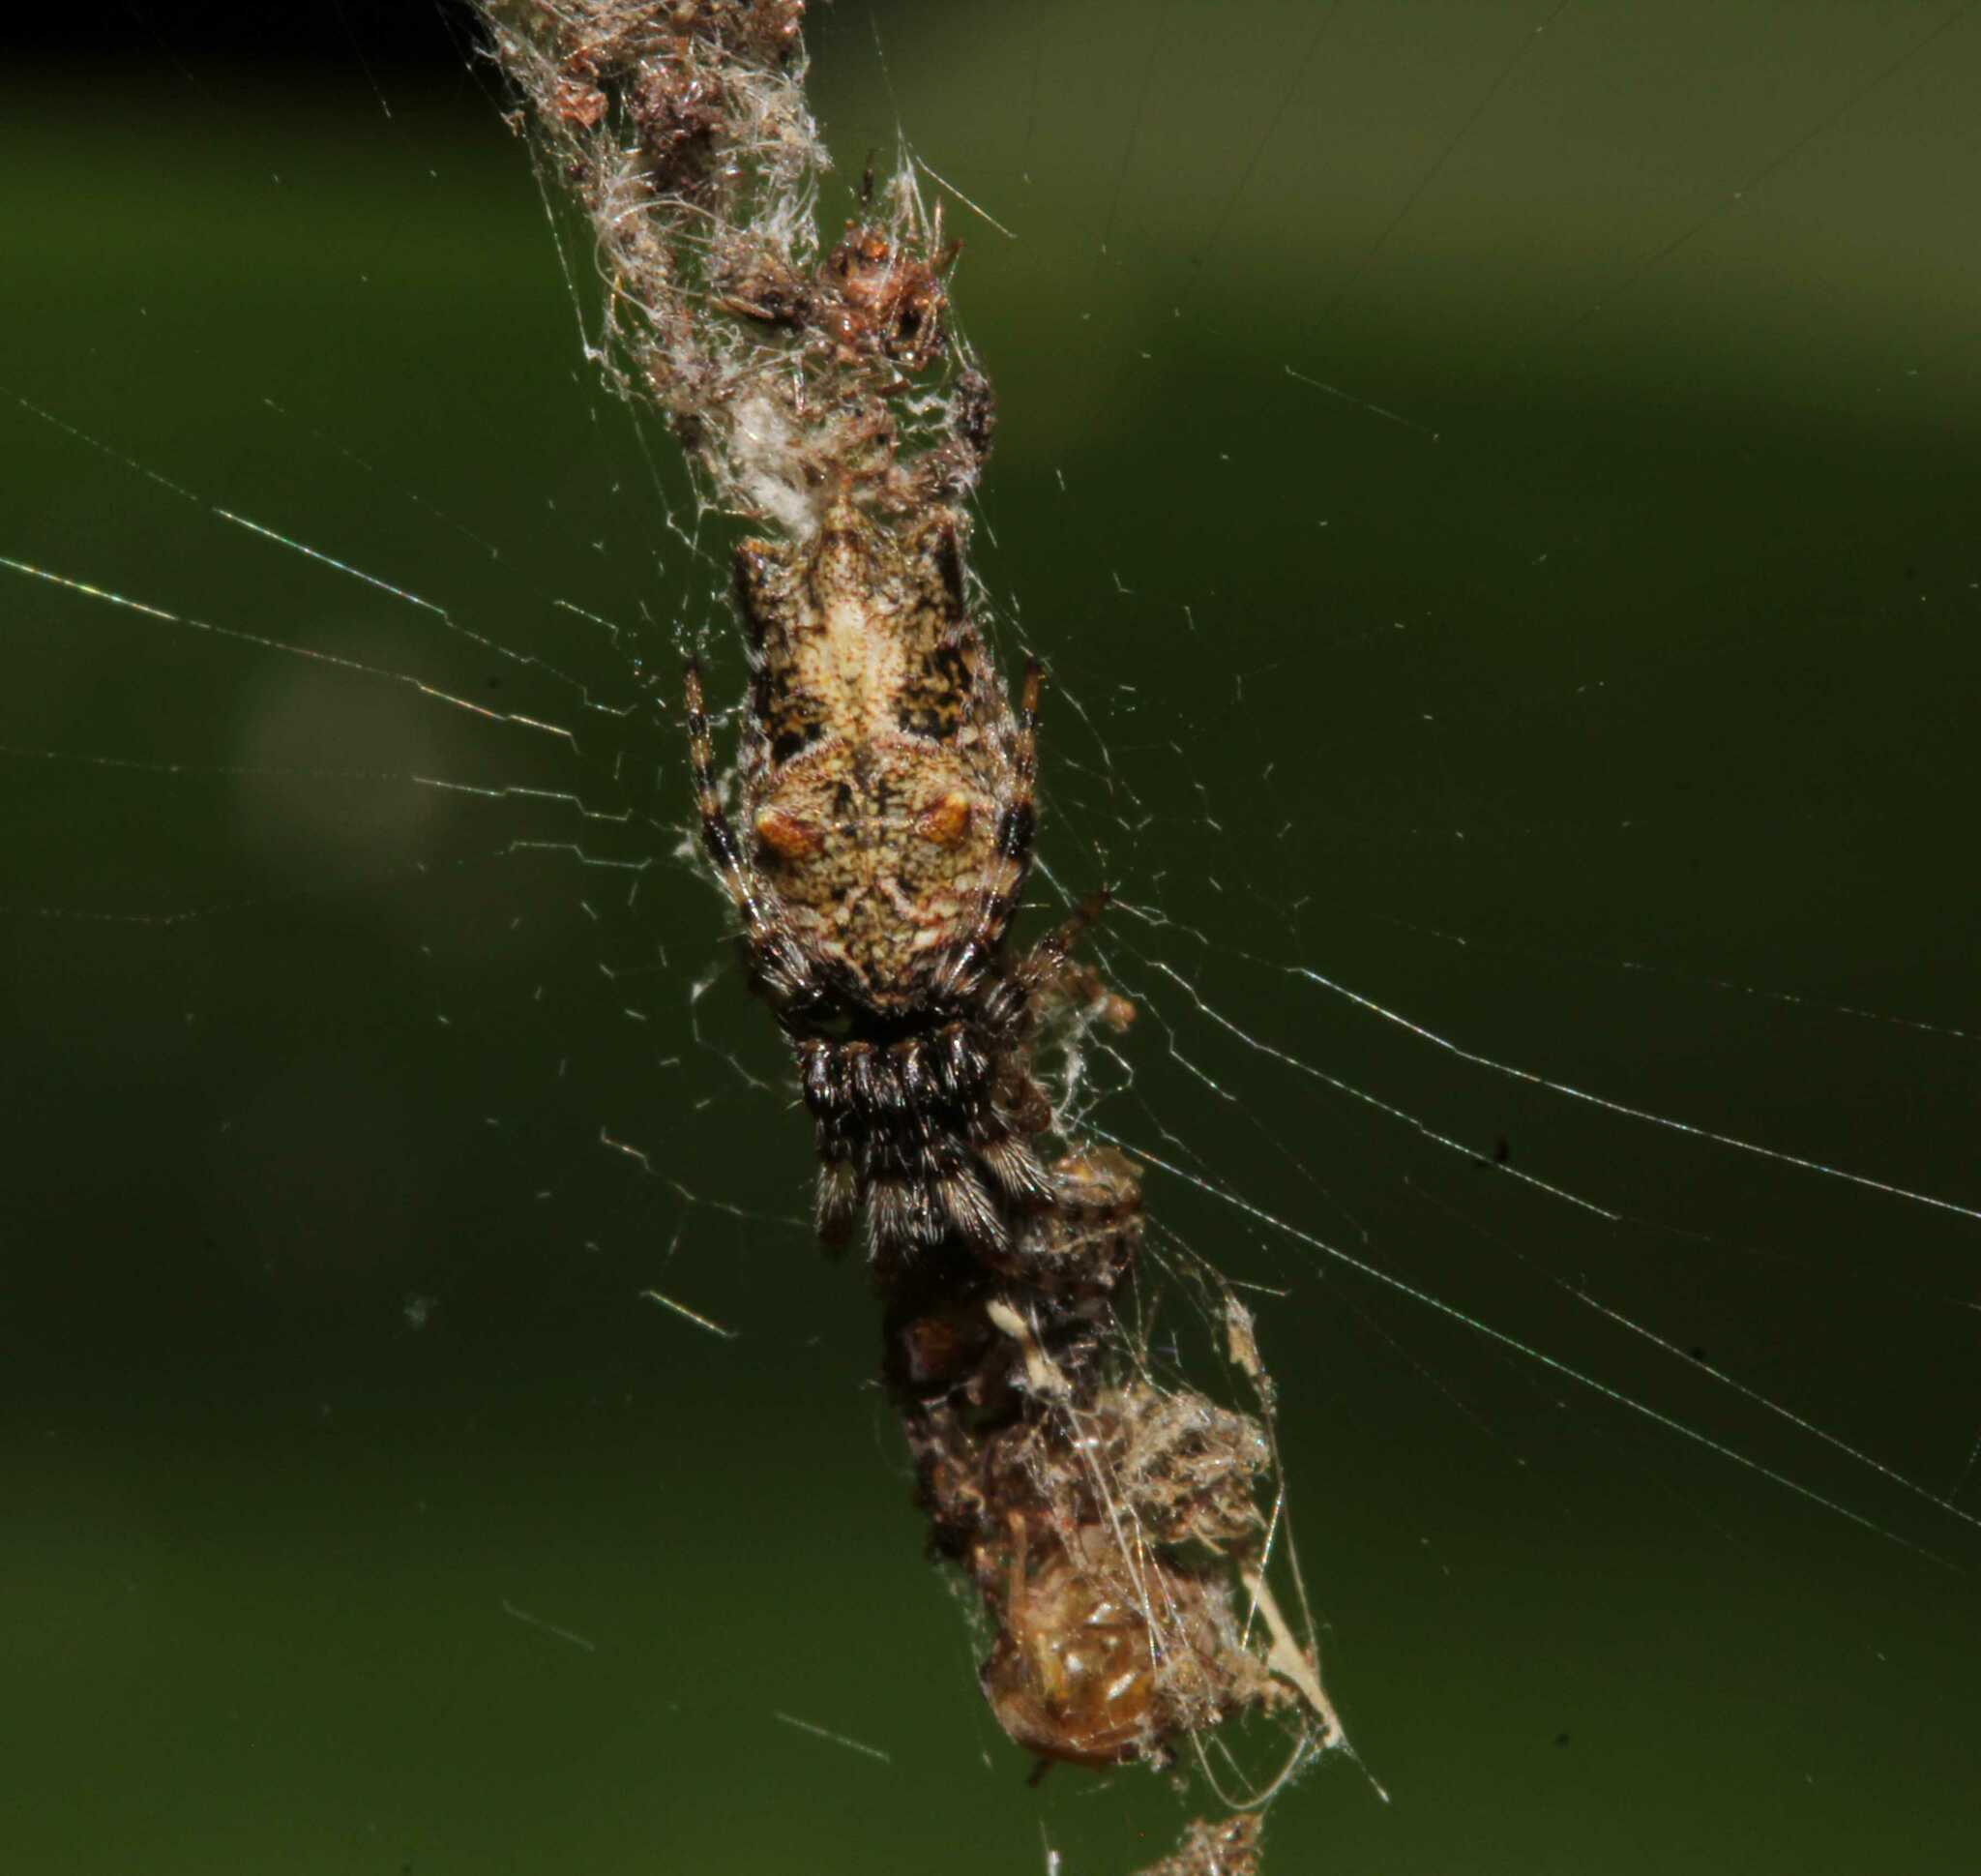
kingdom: Animalia
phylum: Arthropoda
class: Arachnida
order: Araneae
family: Araneidae
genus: Cyclosa
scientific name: Cyclosa walckenaeri
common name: Orb weavers
